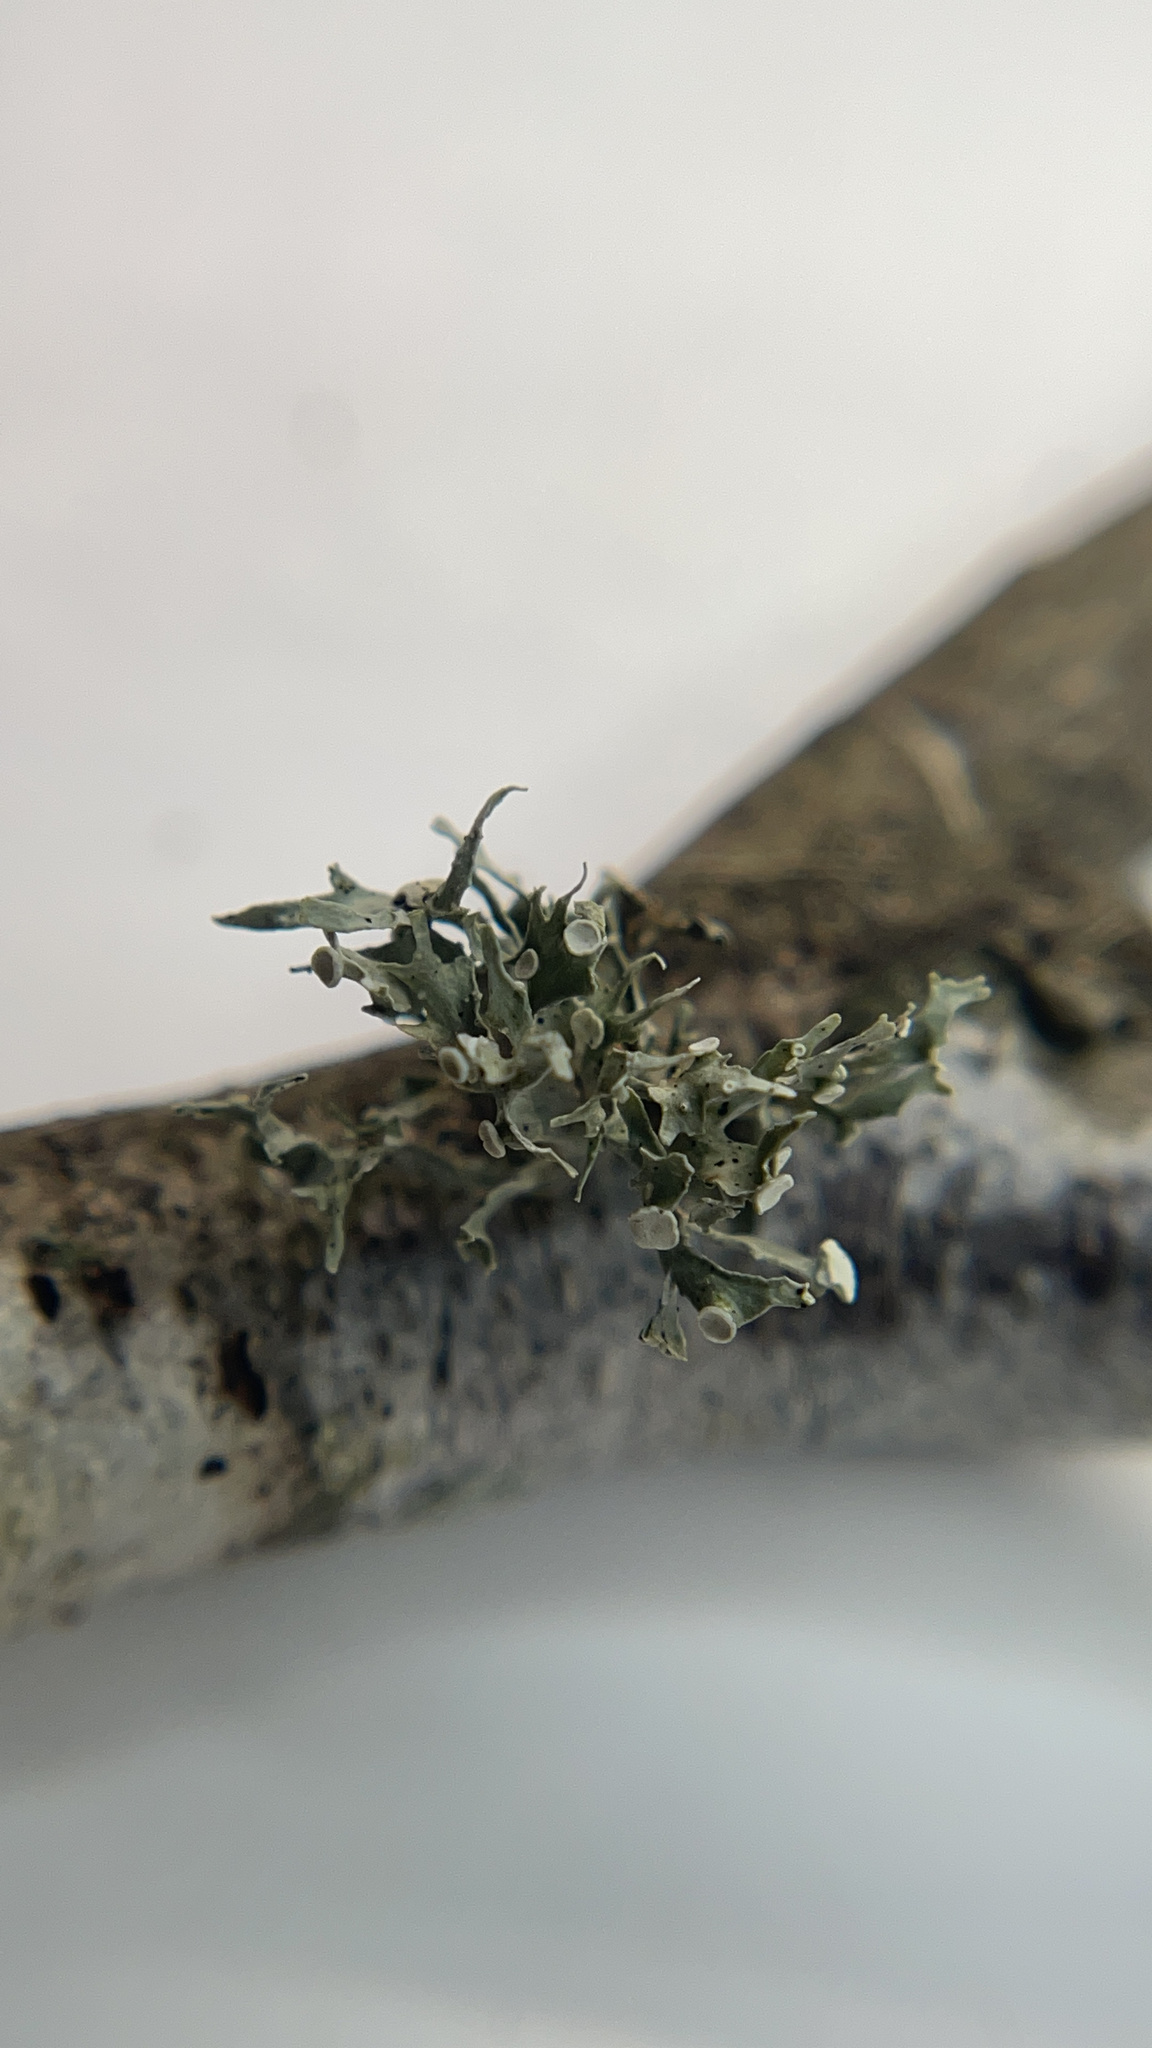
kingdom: Fungi
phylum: Ascomycota
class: Lecanoromycetes
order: Lecanorales
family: Ramalinaceae
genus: Ramalina
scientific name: Ramalina
